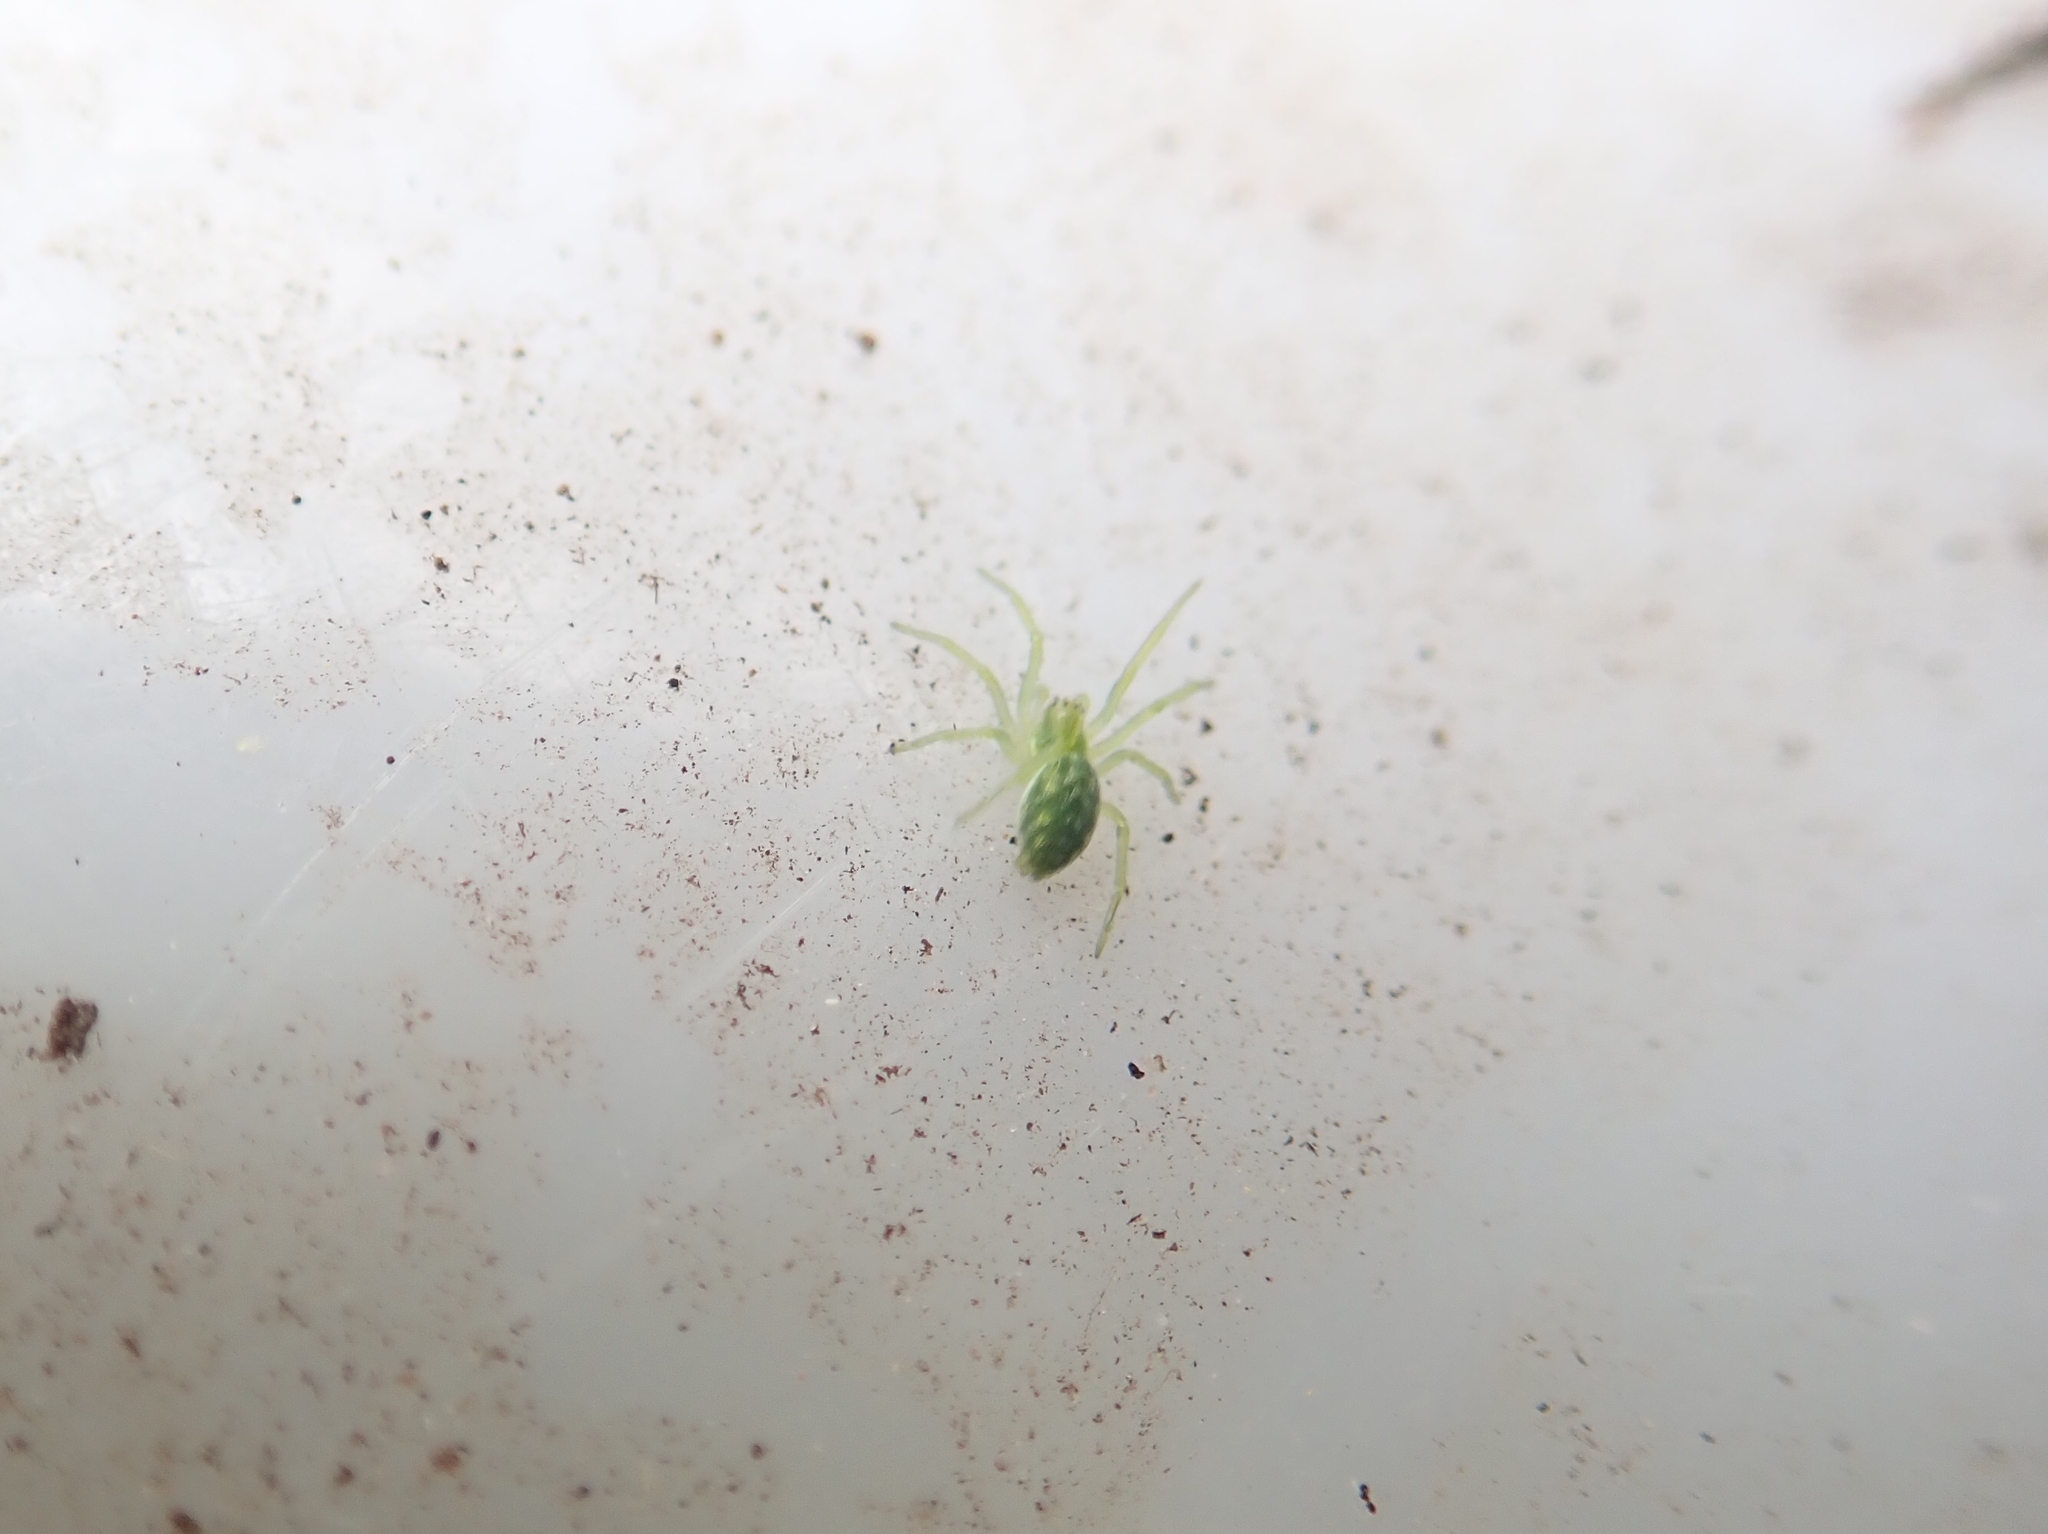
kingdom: Animalia
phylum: Arthropoda
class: Arachnida
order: Araneae
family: Dictynidae
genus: Nigma
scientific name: Nigma walckenaeri
